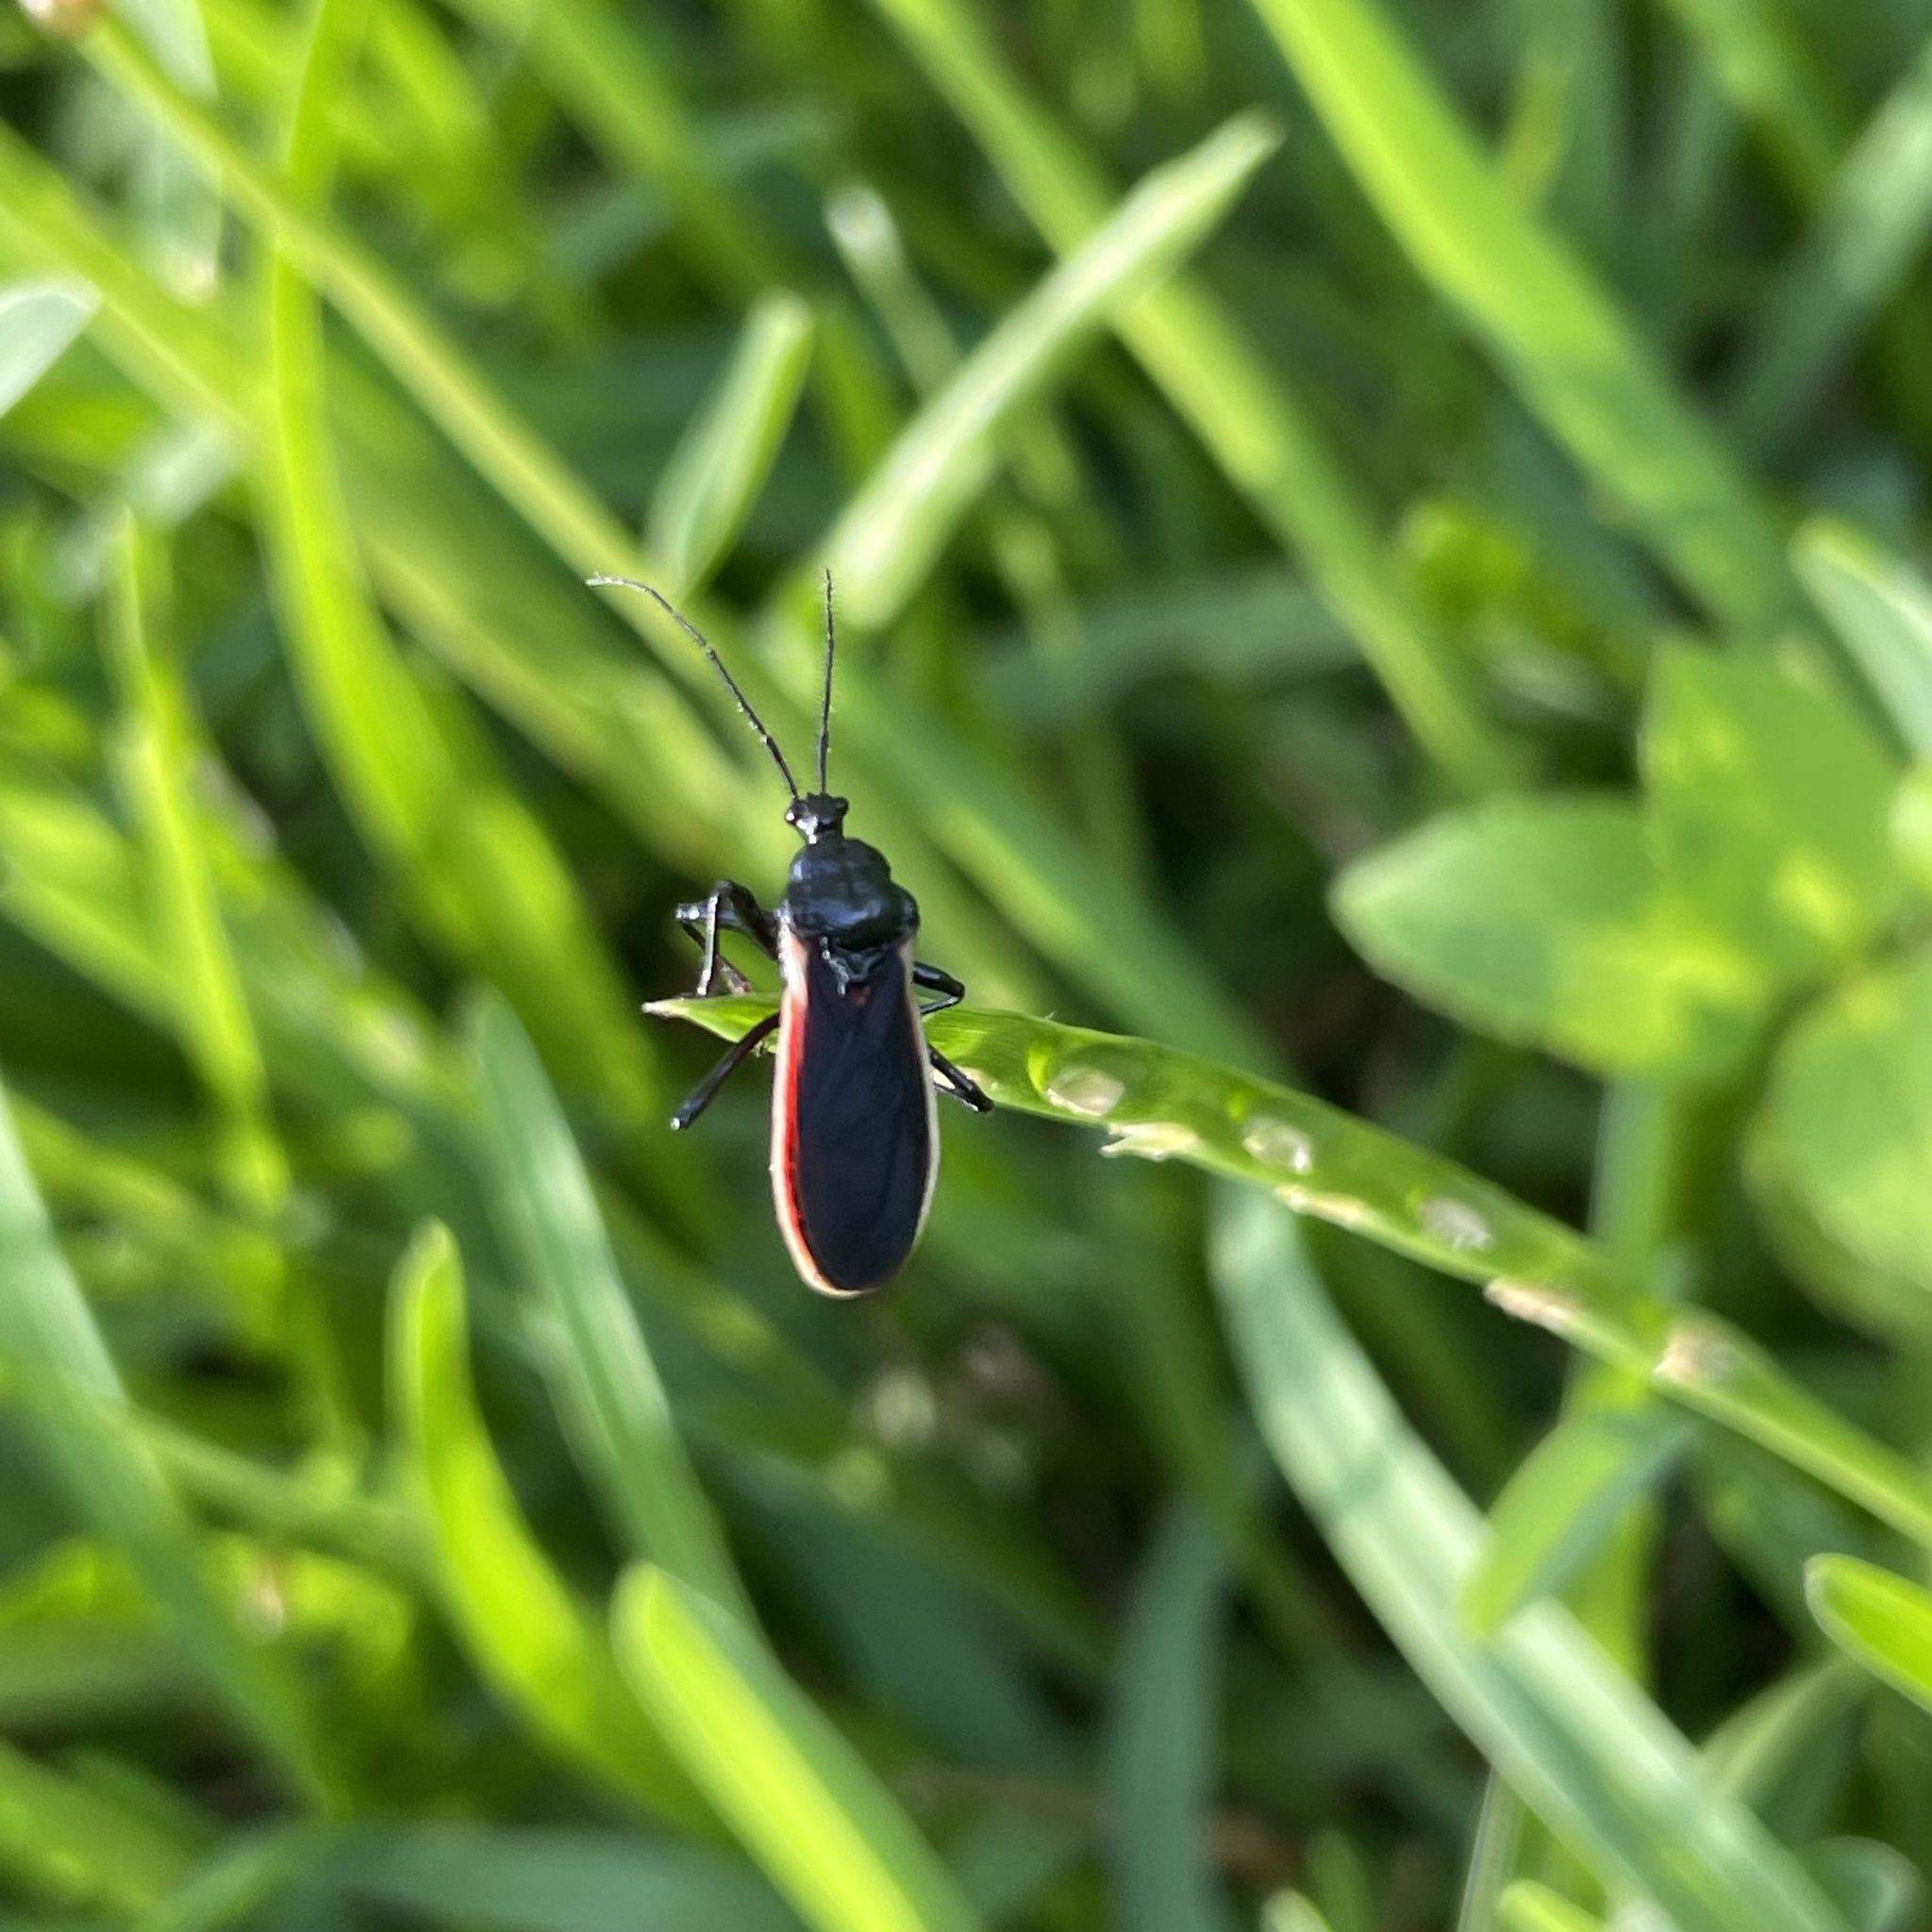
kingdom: Animalia
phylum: Arthropoda
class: Insecta
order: Hemiptera
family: Reduviidae
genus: Scadra
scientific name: Scadra okinawensis
